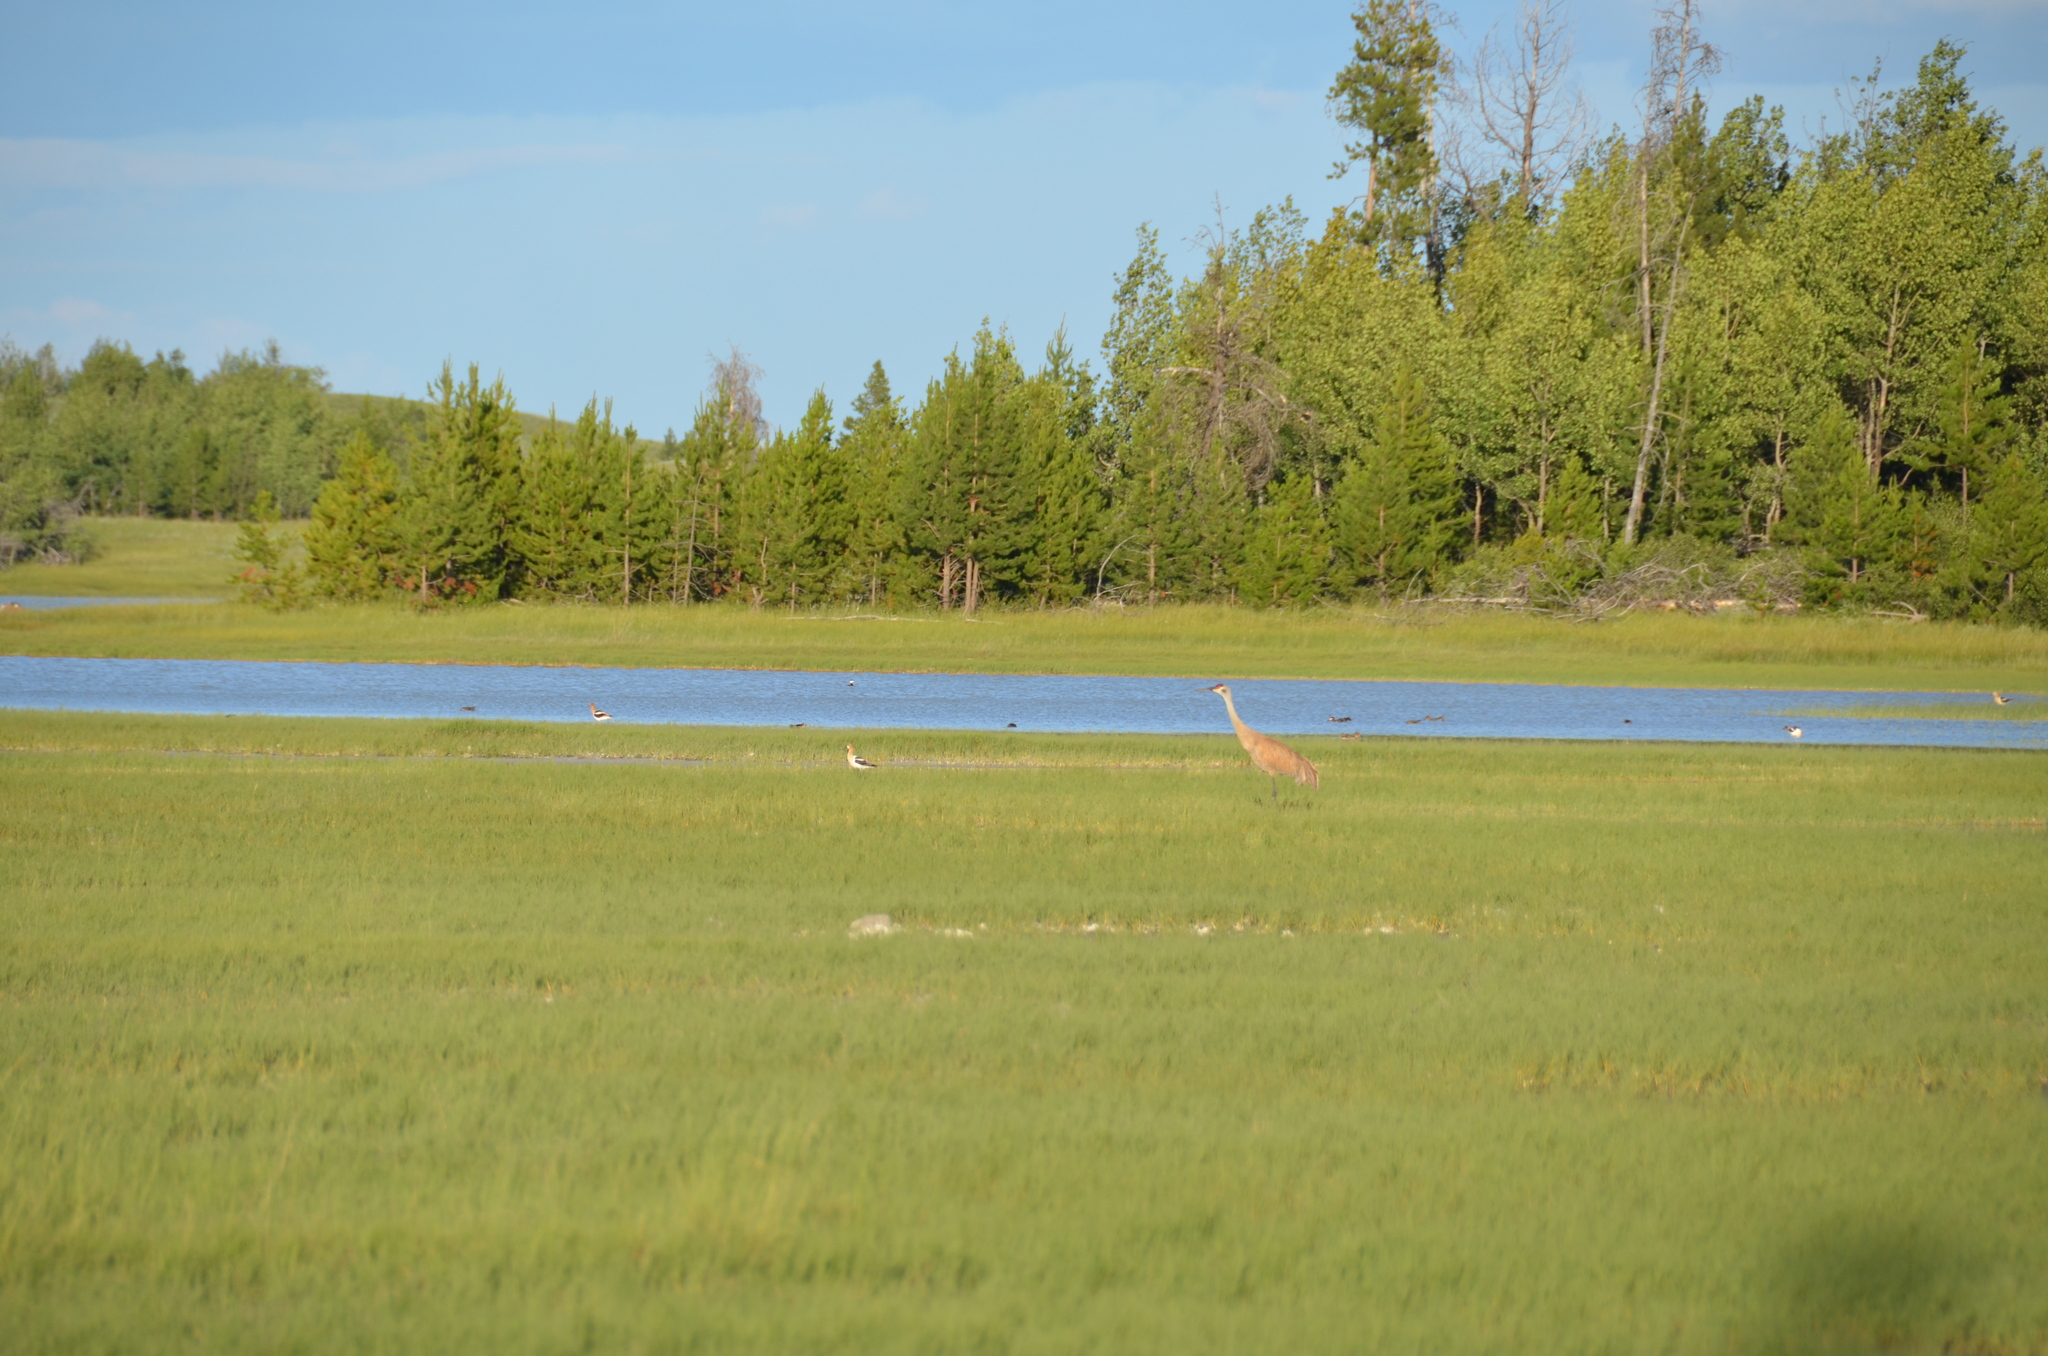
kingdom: Animalia
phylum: Chordata
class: Aves
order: Gruiformes
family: Gruidae
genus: Grus
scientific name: Grus canadensis
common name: Sandhill crane
